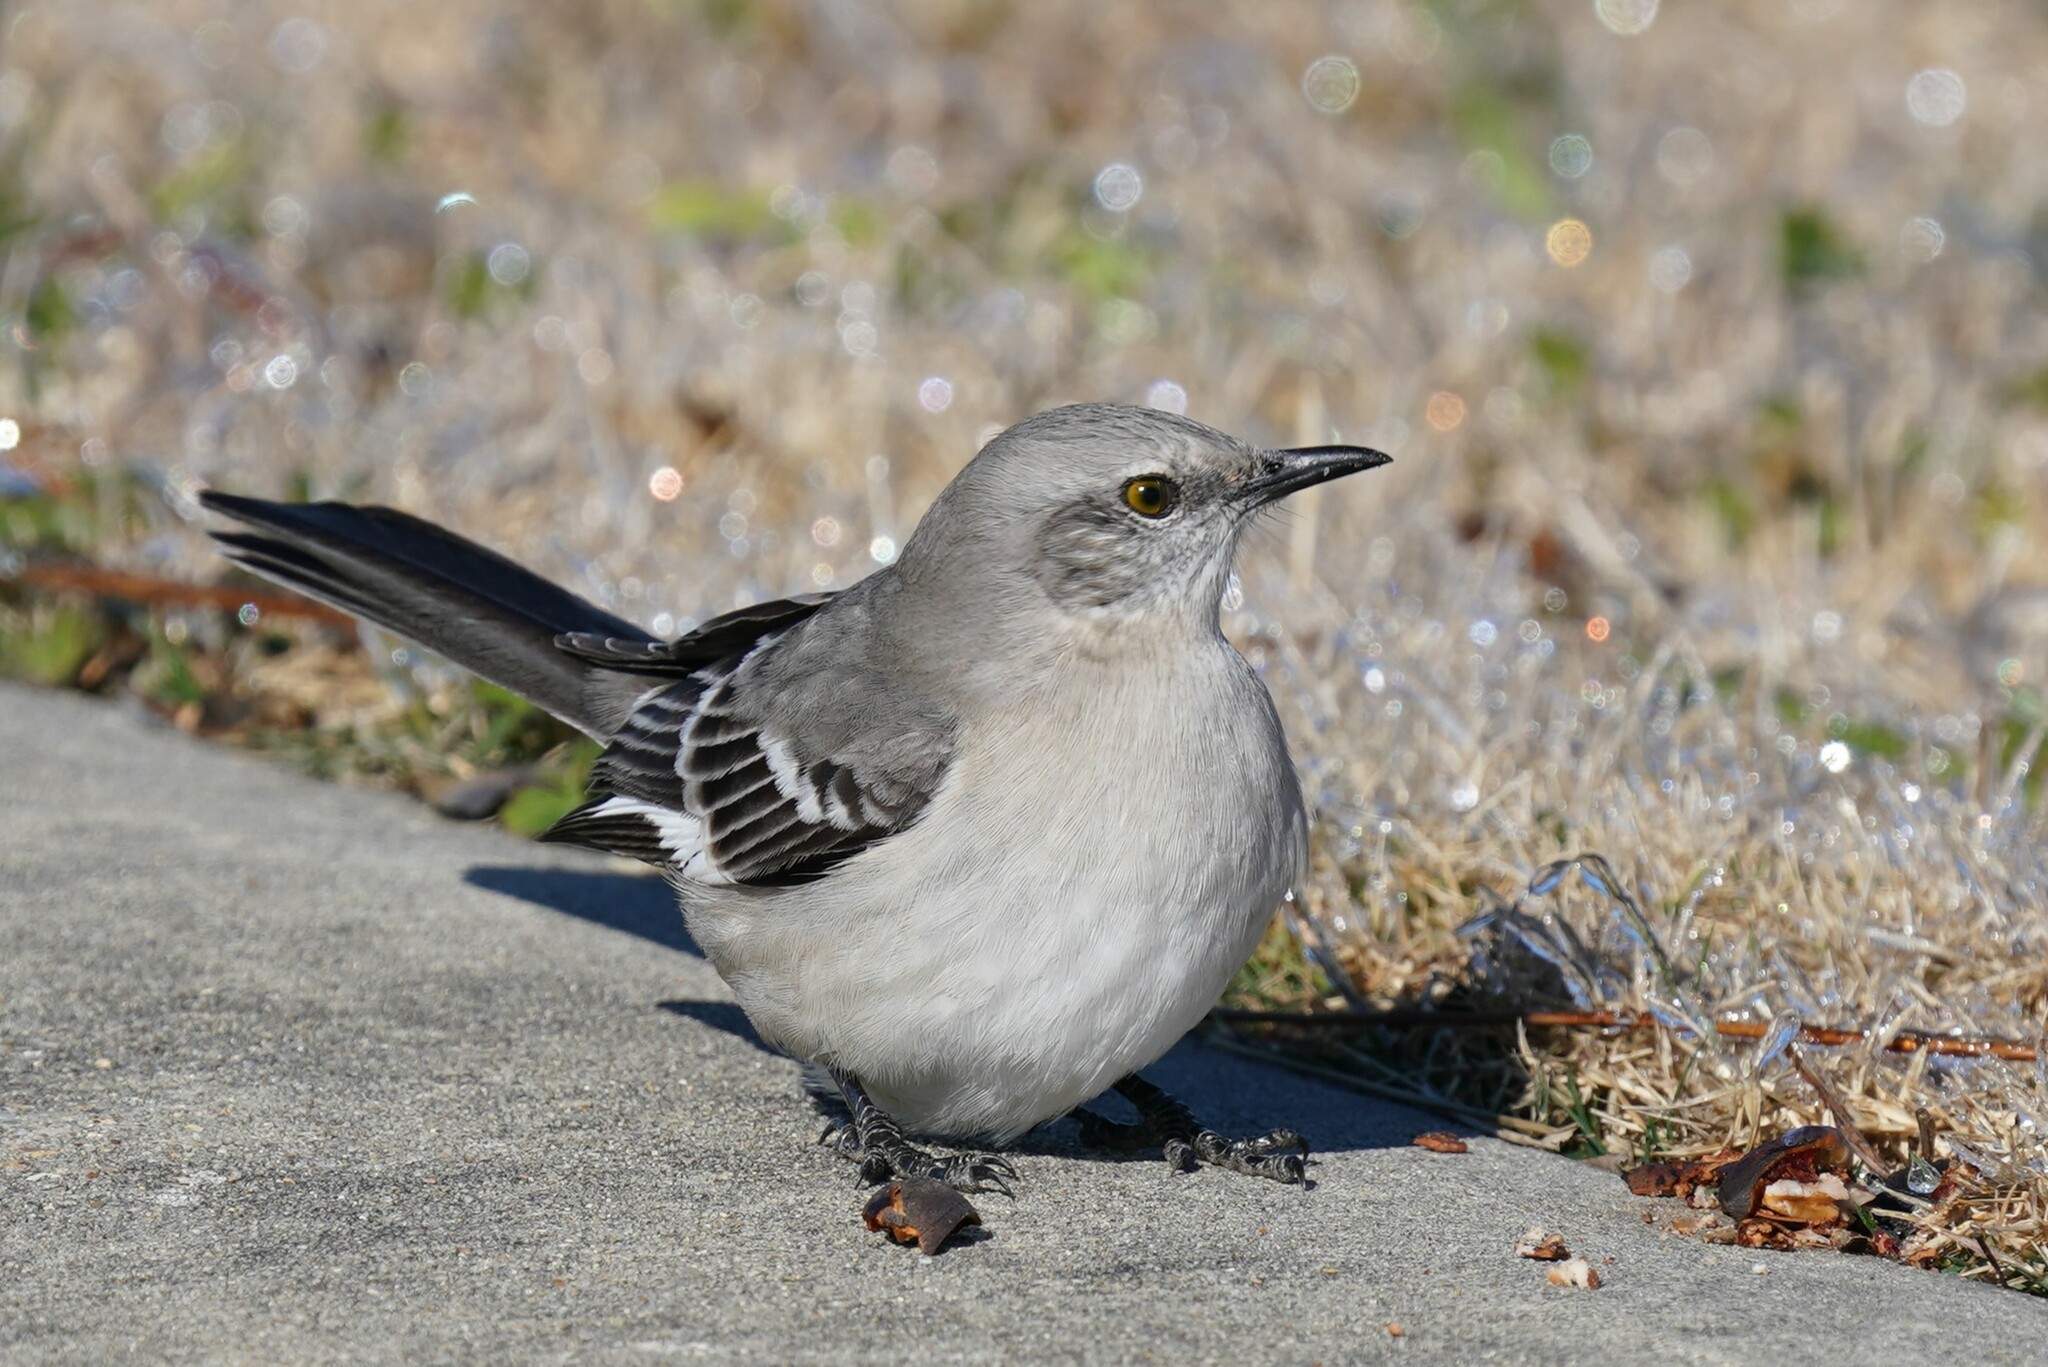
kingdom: Animalia
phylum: Chordata
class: Aves
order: Passeriformes
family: Mimidae
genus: Mimus
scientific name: Mimus polyglottos
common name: Northern mockingbird
